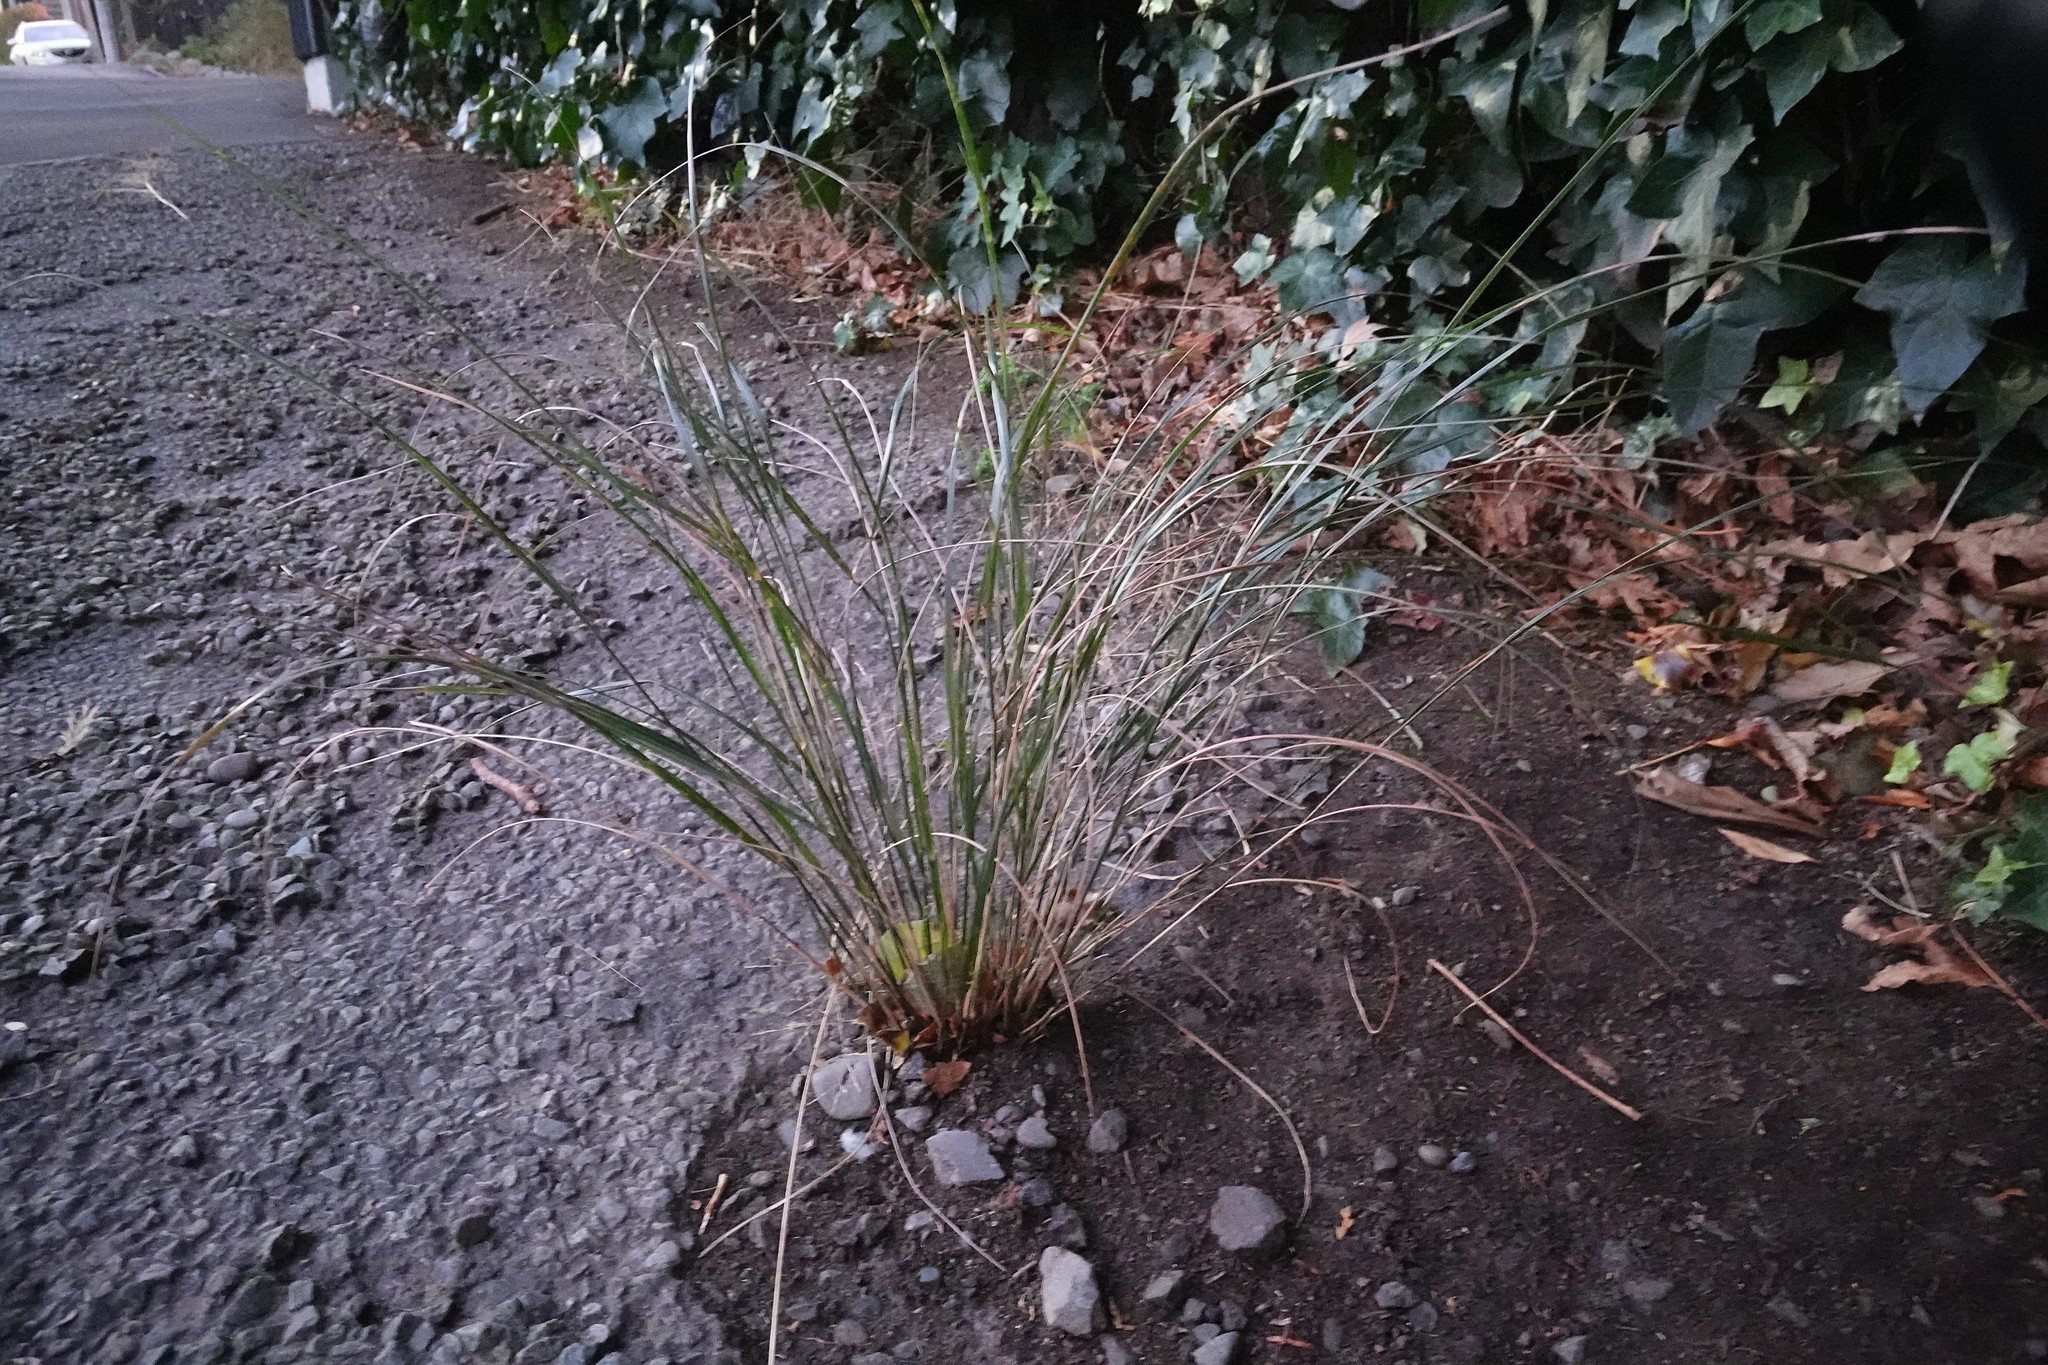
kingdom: Plantae
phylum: Tracheophyta
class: Liliopsida
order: Poales
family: Poaceae
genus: Anemanthele
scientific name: Anemanthele lessoniana
